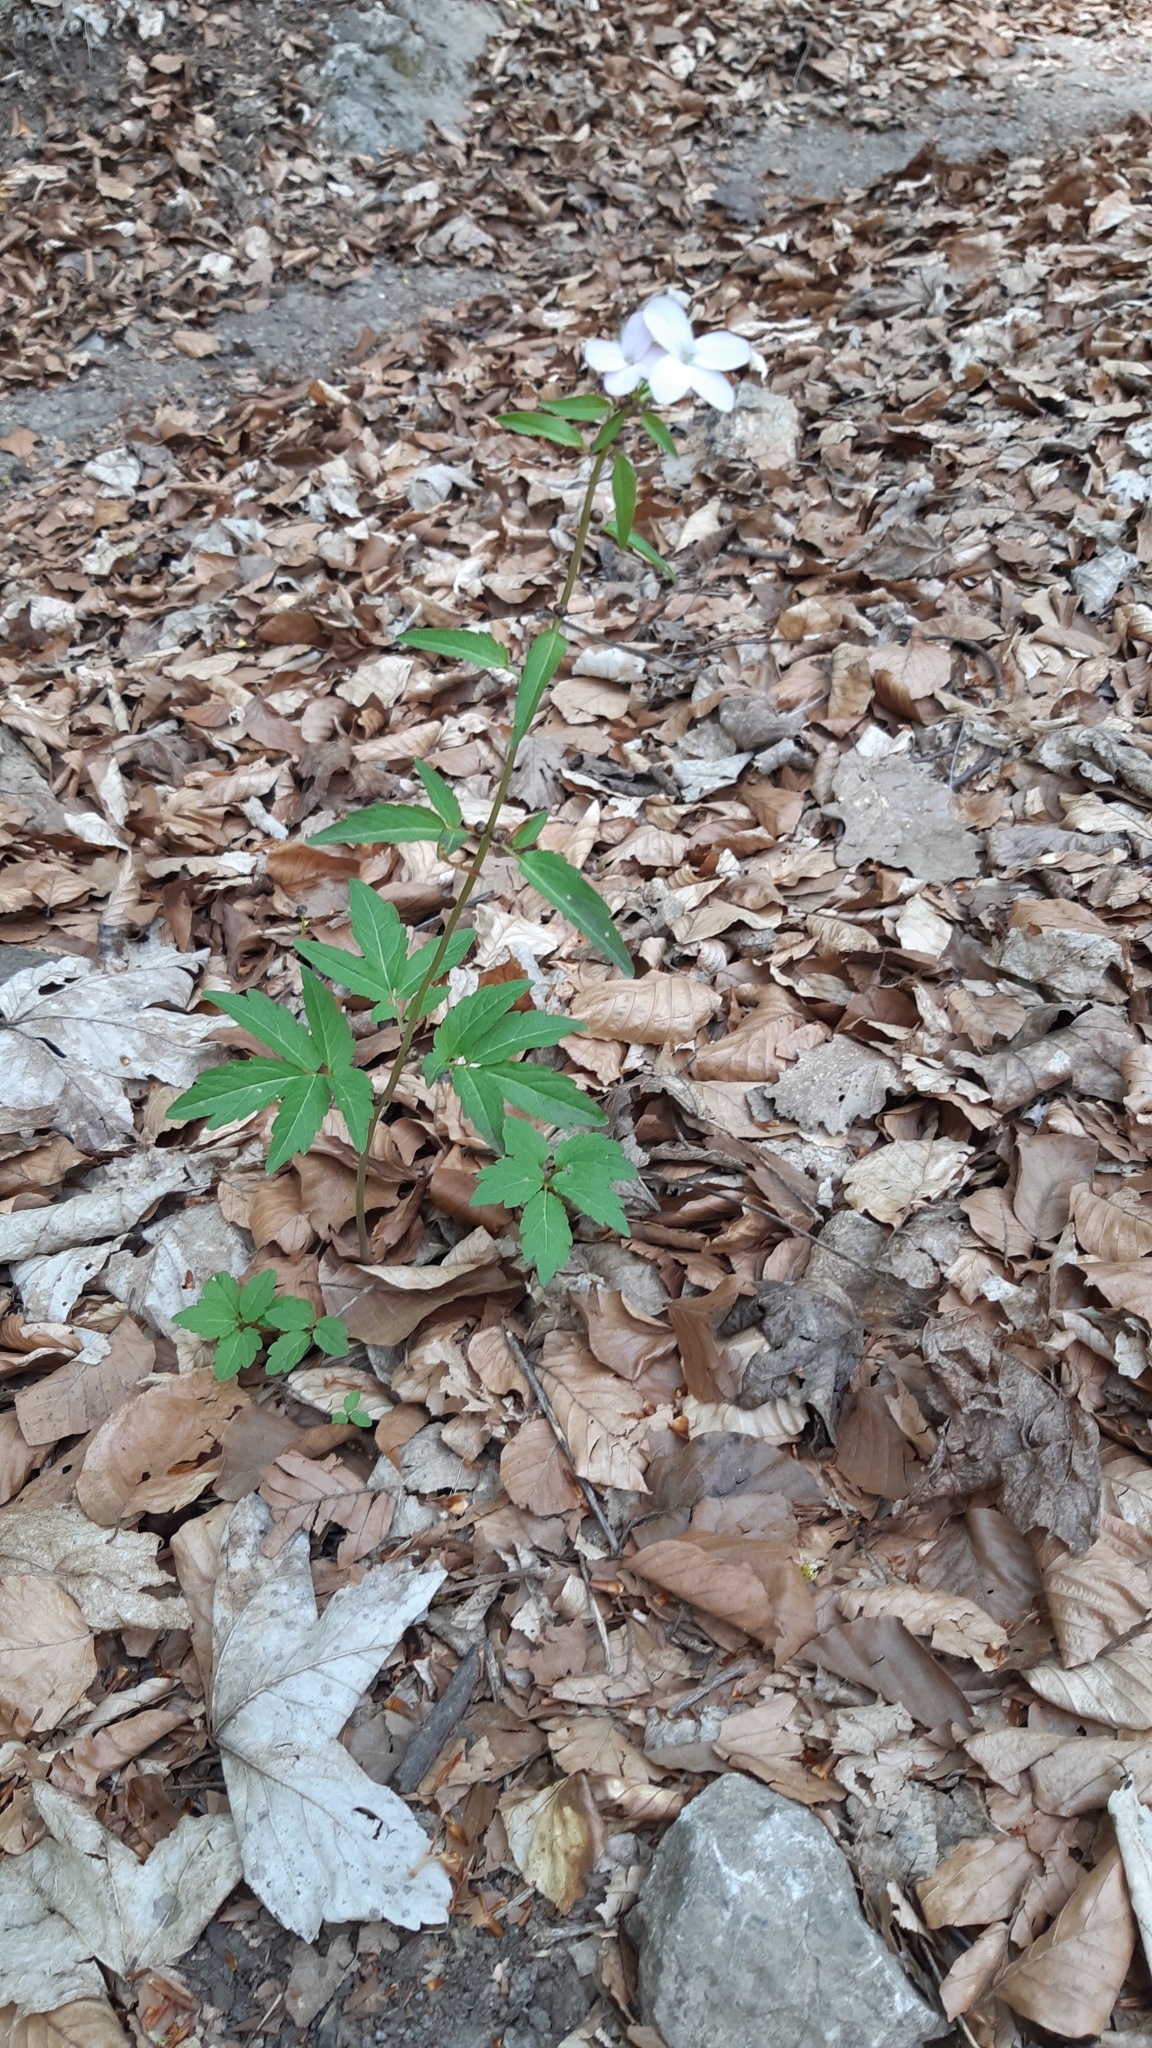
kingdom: Plantae
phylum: Tracheophyta
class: Magnoliopsida
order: Brassicales
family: Brassicaceae
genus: Cardamine
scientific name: Cardamine bulbifera
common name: Coralroot bittercress
